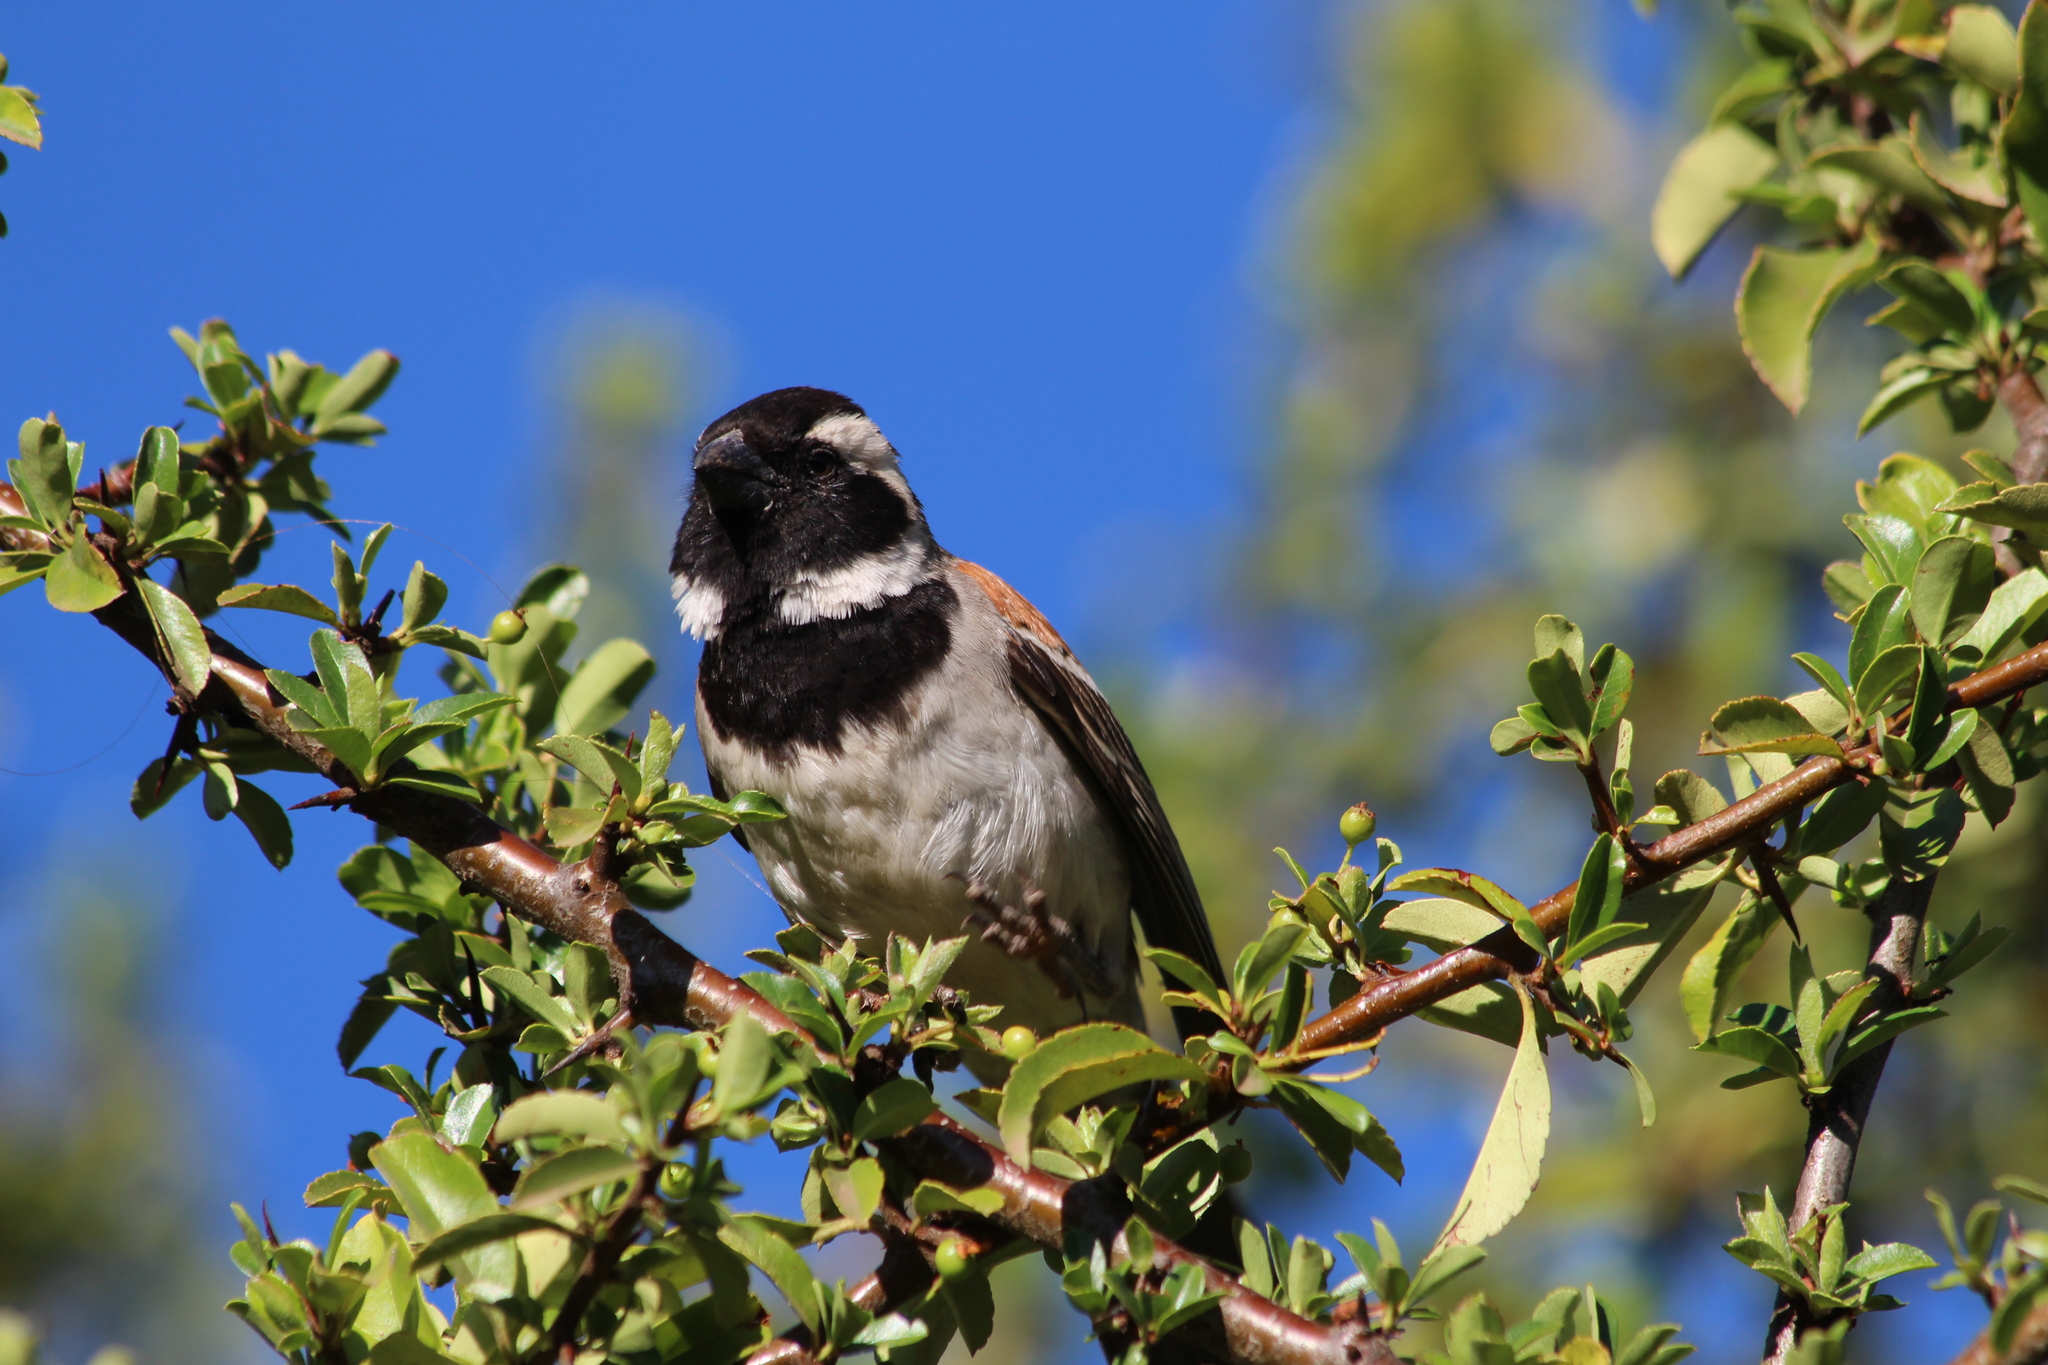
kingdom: Animalia
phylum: Chordata
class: Aves
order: Passeriformes
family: Passeridae
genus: Passer
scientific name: Passer melanurus
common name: Cape sparrow
